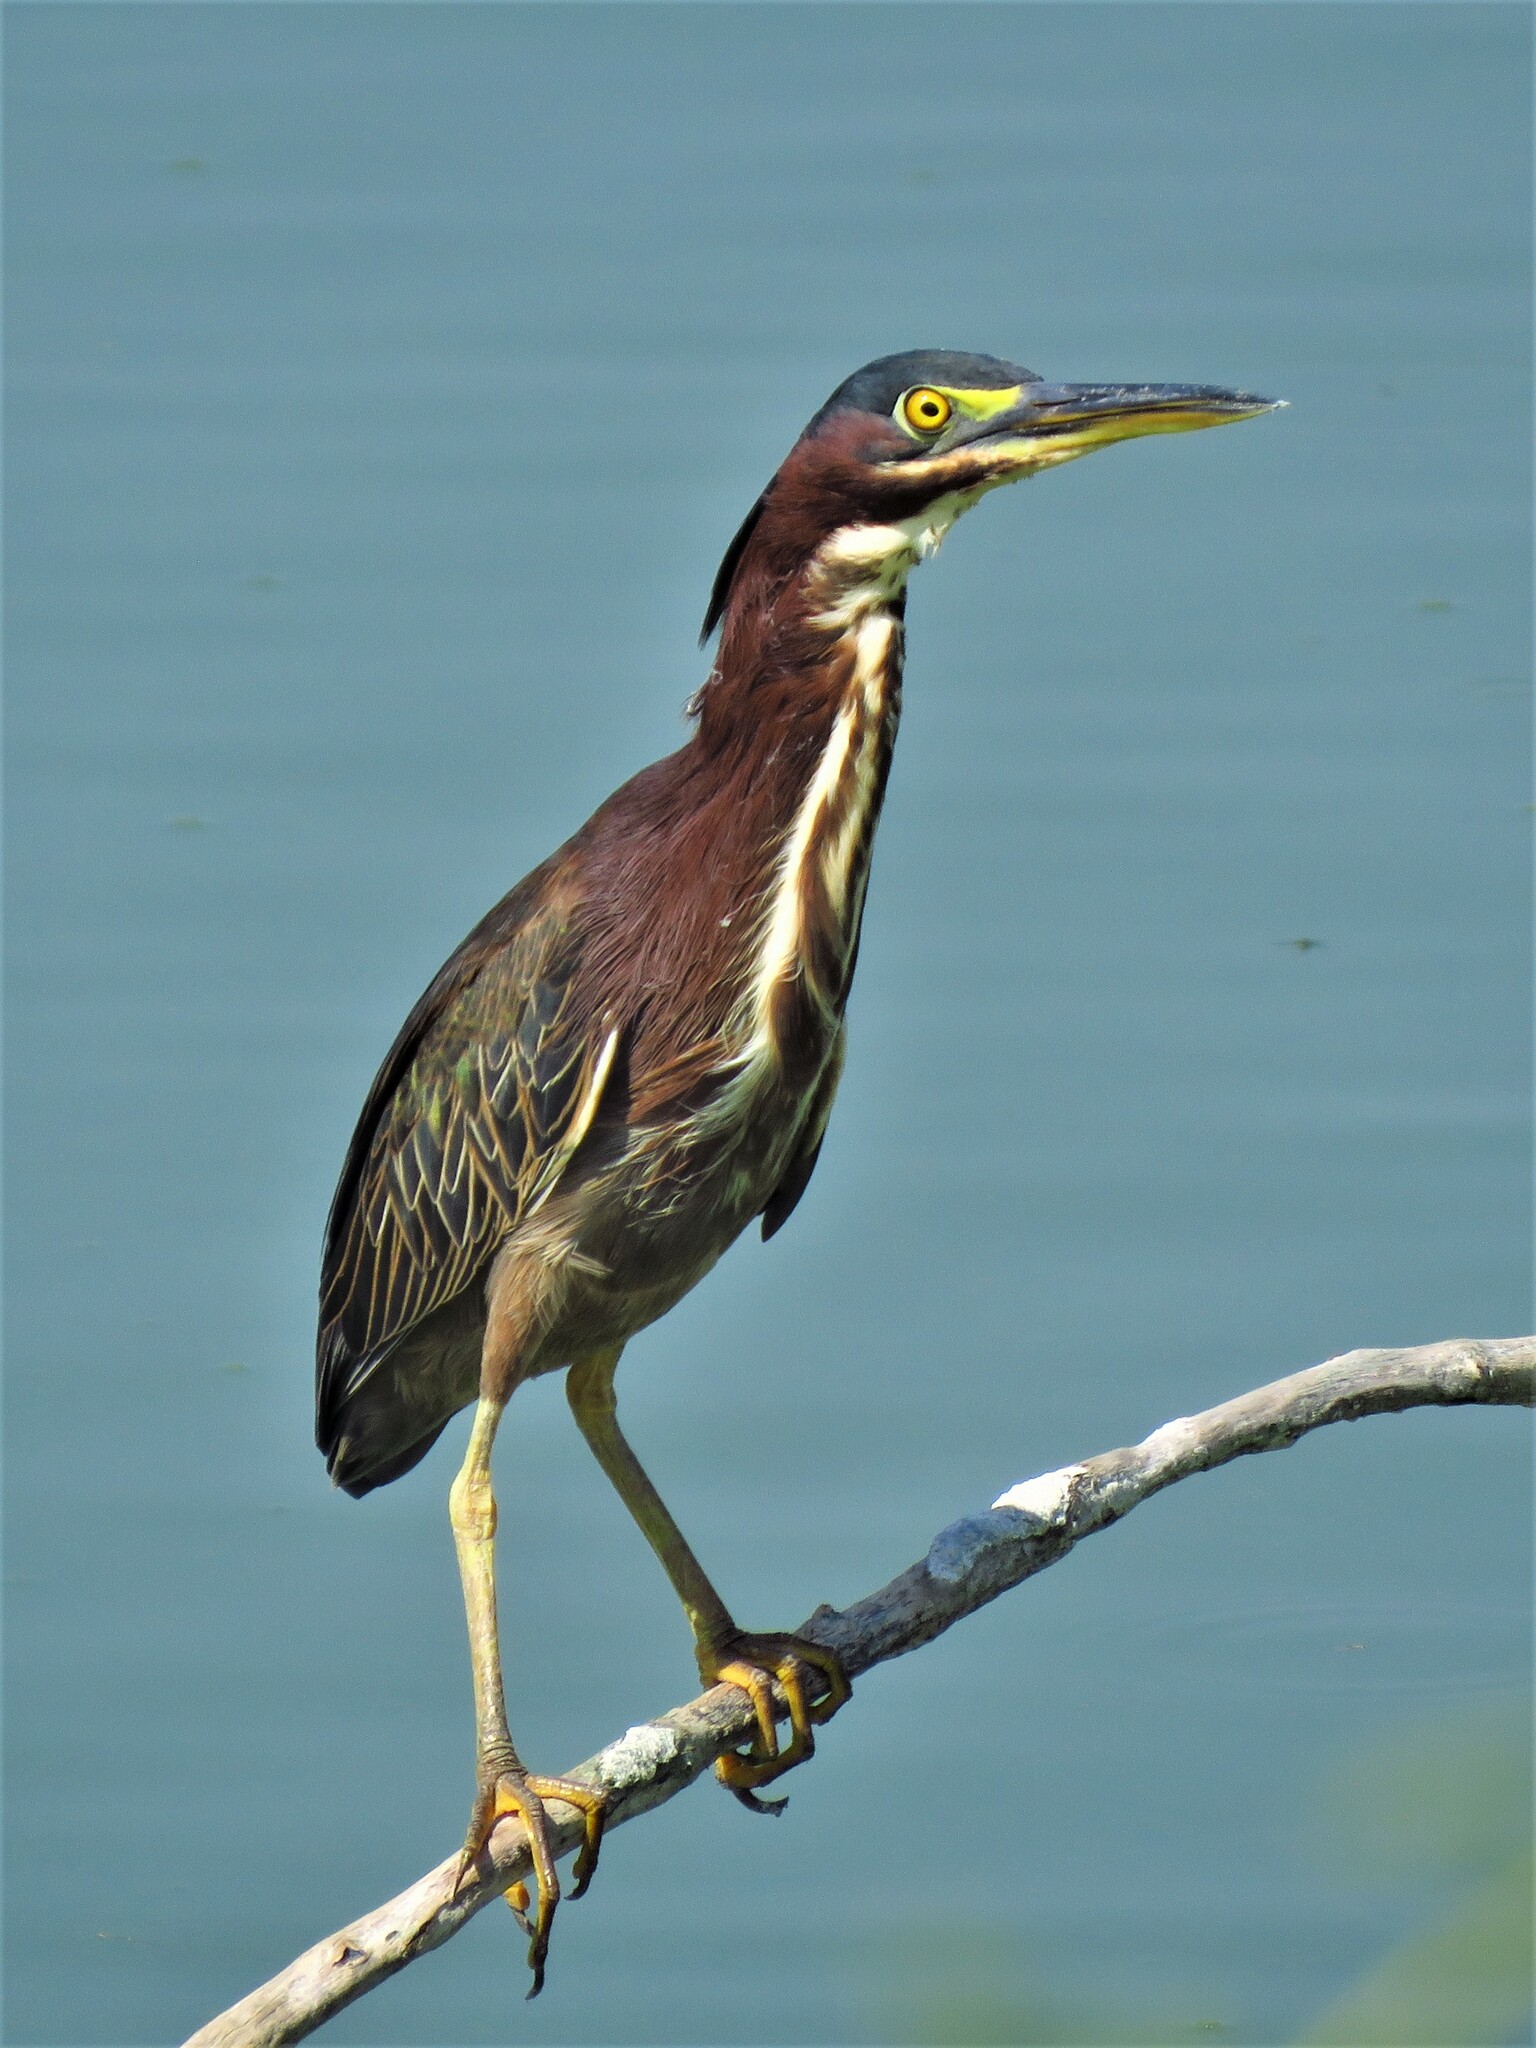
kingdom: Animalia
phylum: Chordata
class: Aves
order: Pelecaniformes
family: Ardeidae
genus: Butorides
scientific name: Butorides virescens
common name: Green heron
